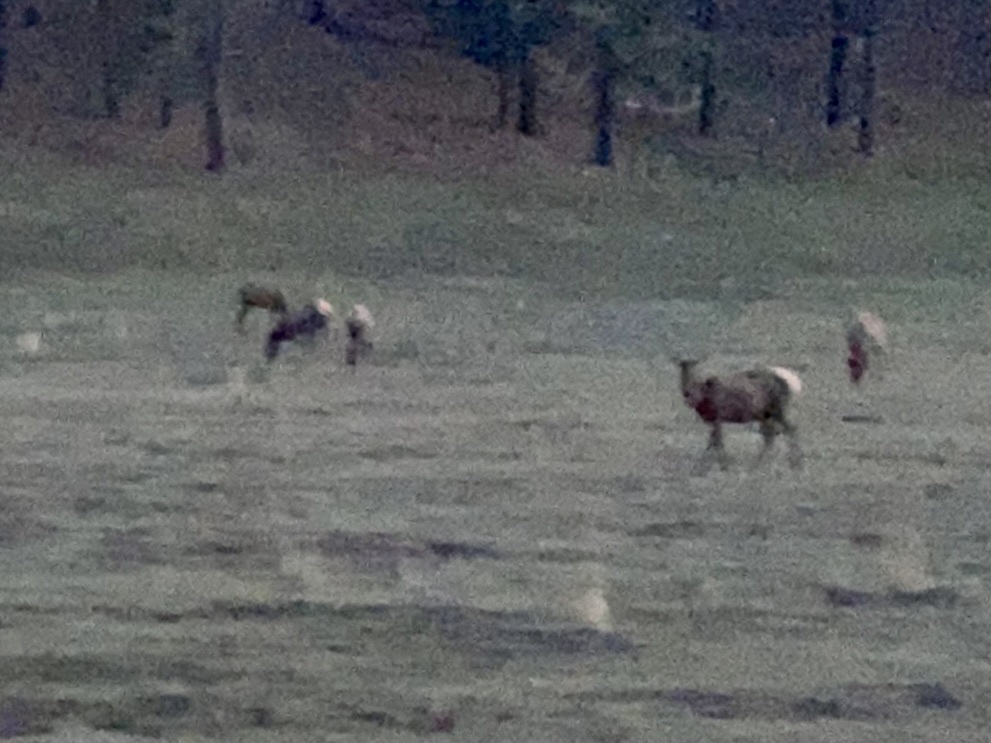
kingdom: Animalia
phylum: Chordata
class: Mammalia
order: Artiodactyla
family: Cervidae
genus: Cervus
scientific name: Cervus elaphus
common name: Red deer
